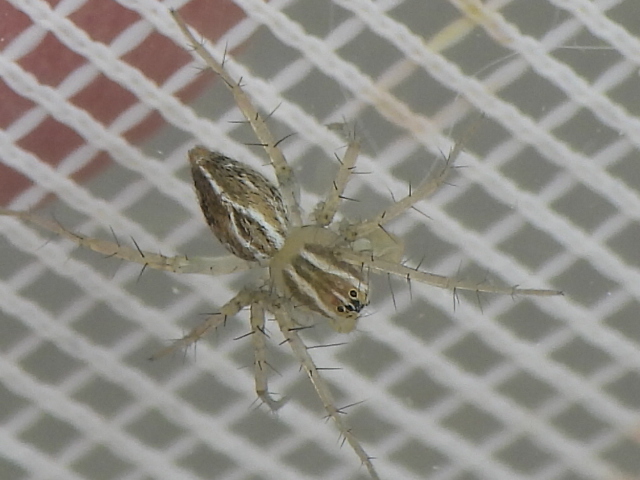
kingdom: Animalia
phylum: Arthropoda
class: Arachnida
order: Araneae
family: Oxyopidae
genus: Oxyopes
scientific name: Oxyopes salticus
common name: Lynx spiders
